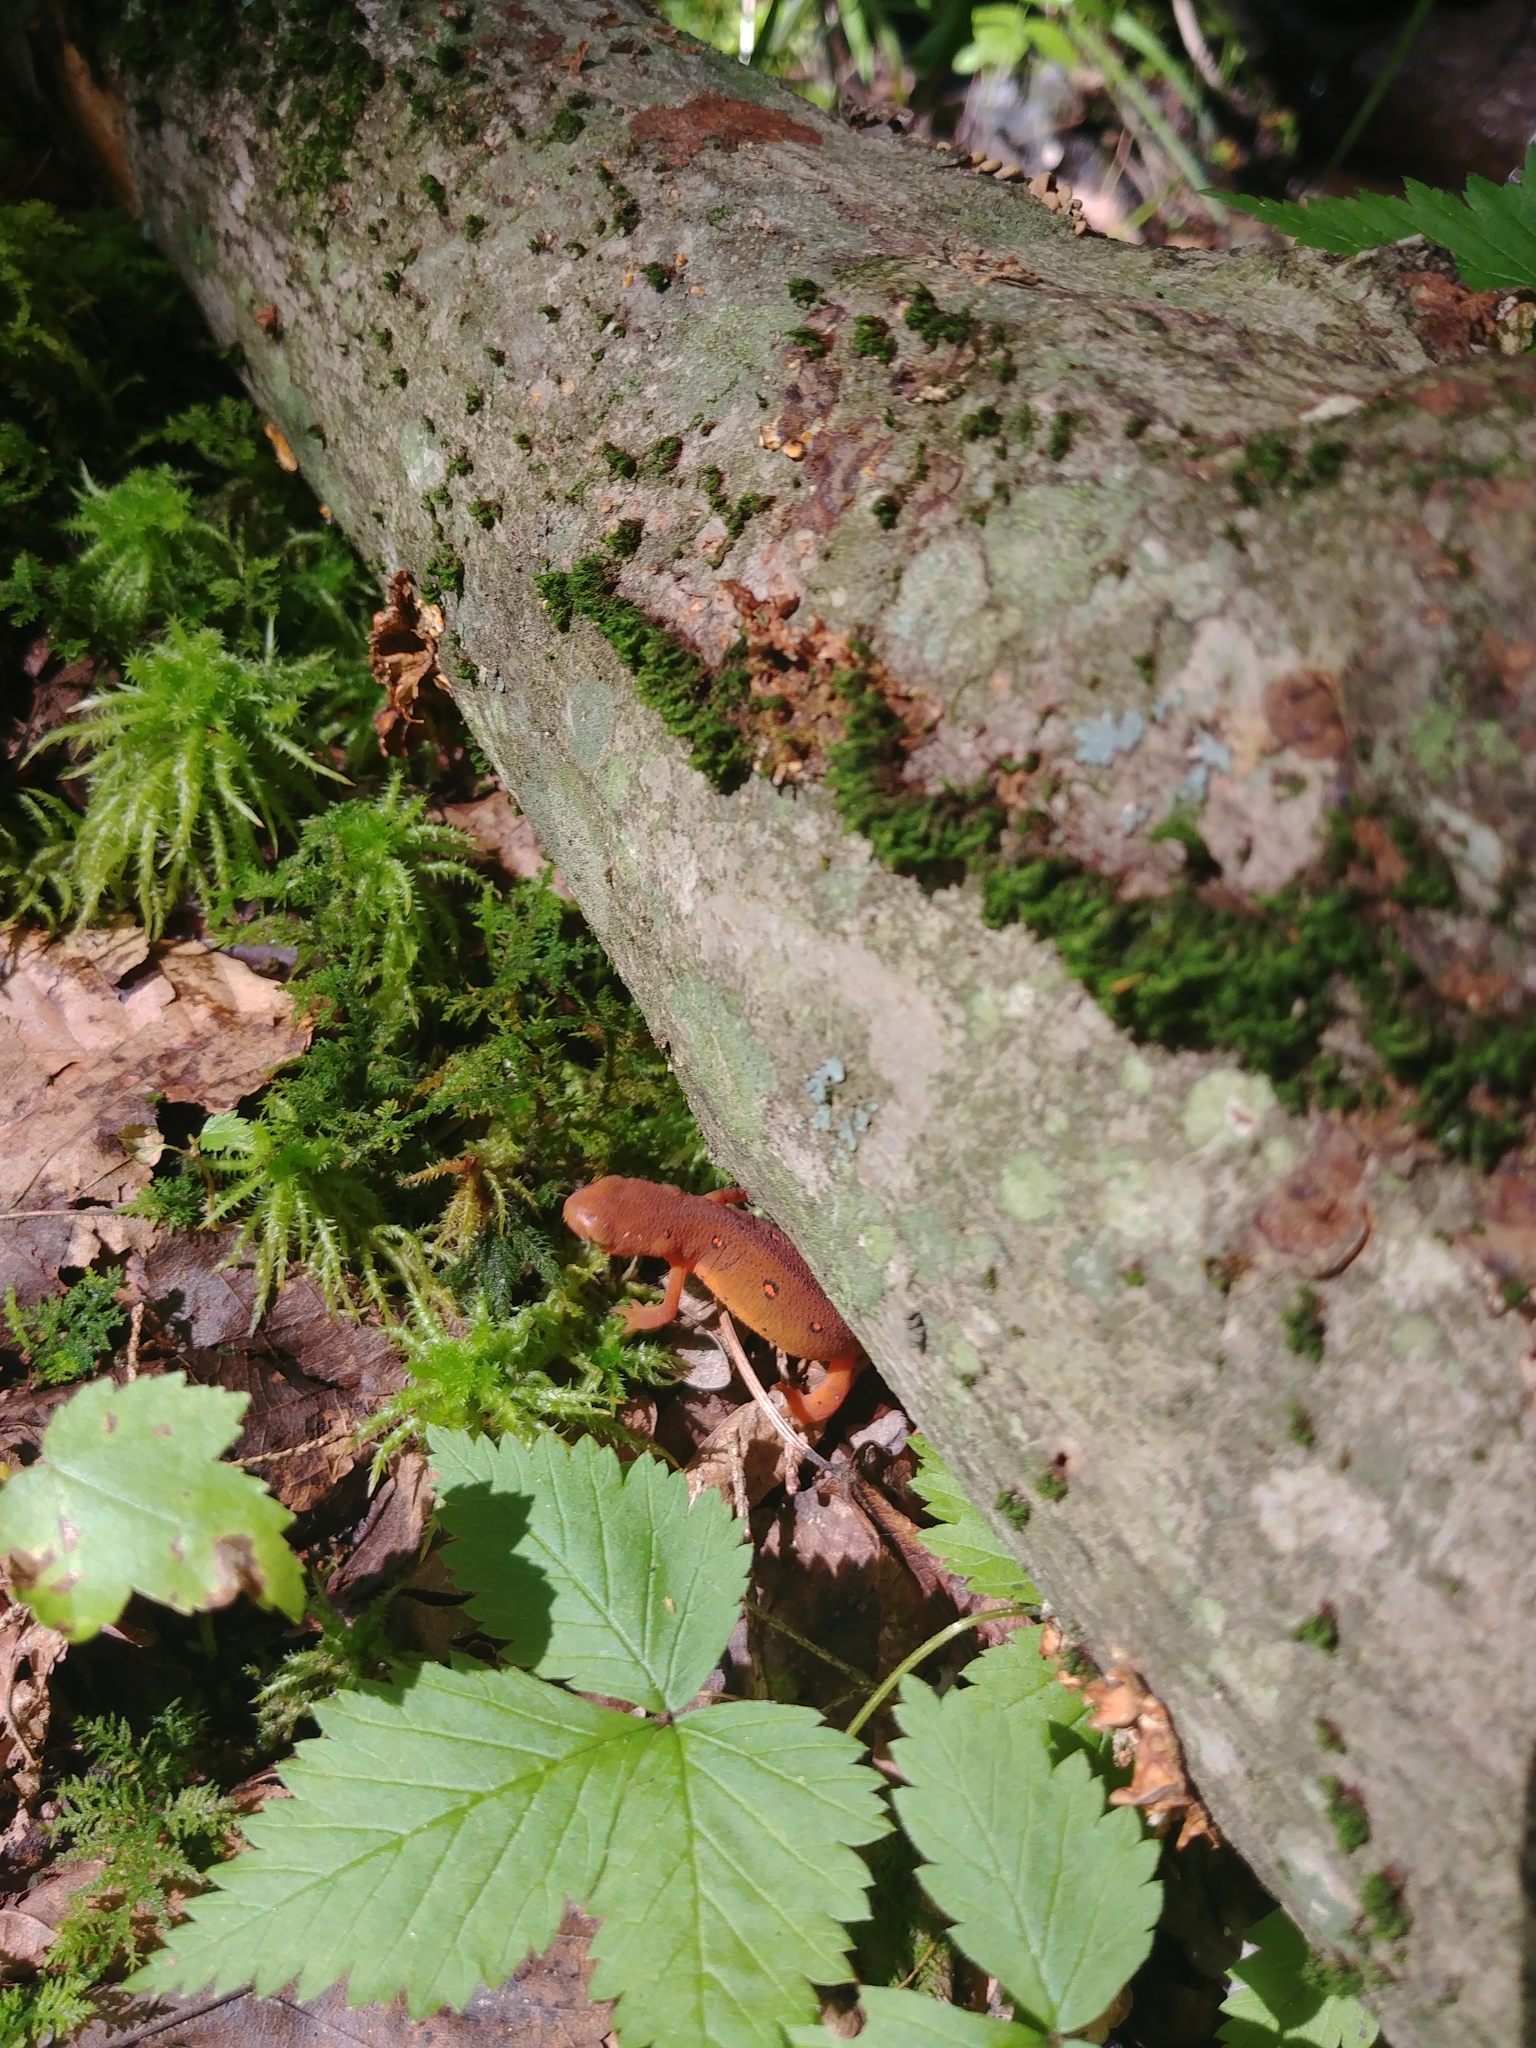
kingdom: Animalia
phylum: Chordata
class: Amphibia
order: Caudata
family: Salamandridae
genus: Notophthalmus
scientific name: Notophthalmus viridescens
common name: Eastern newt
